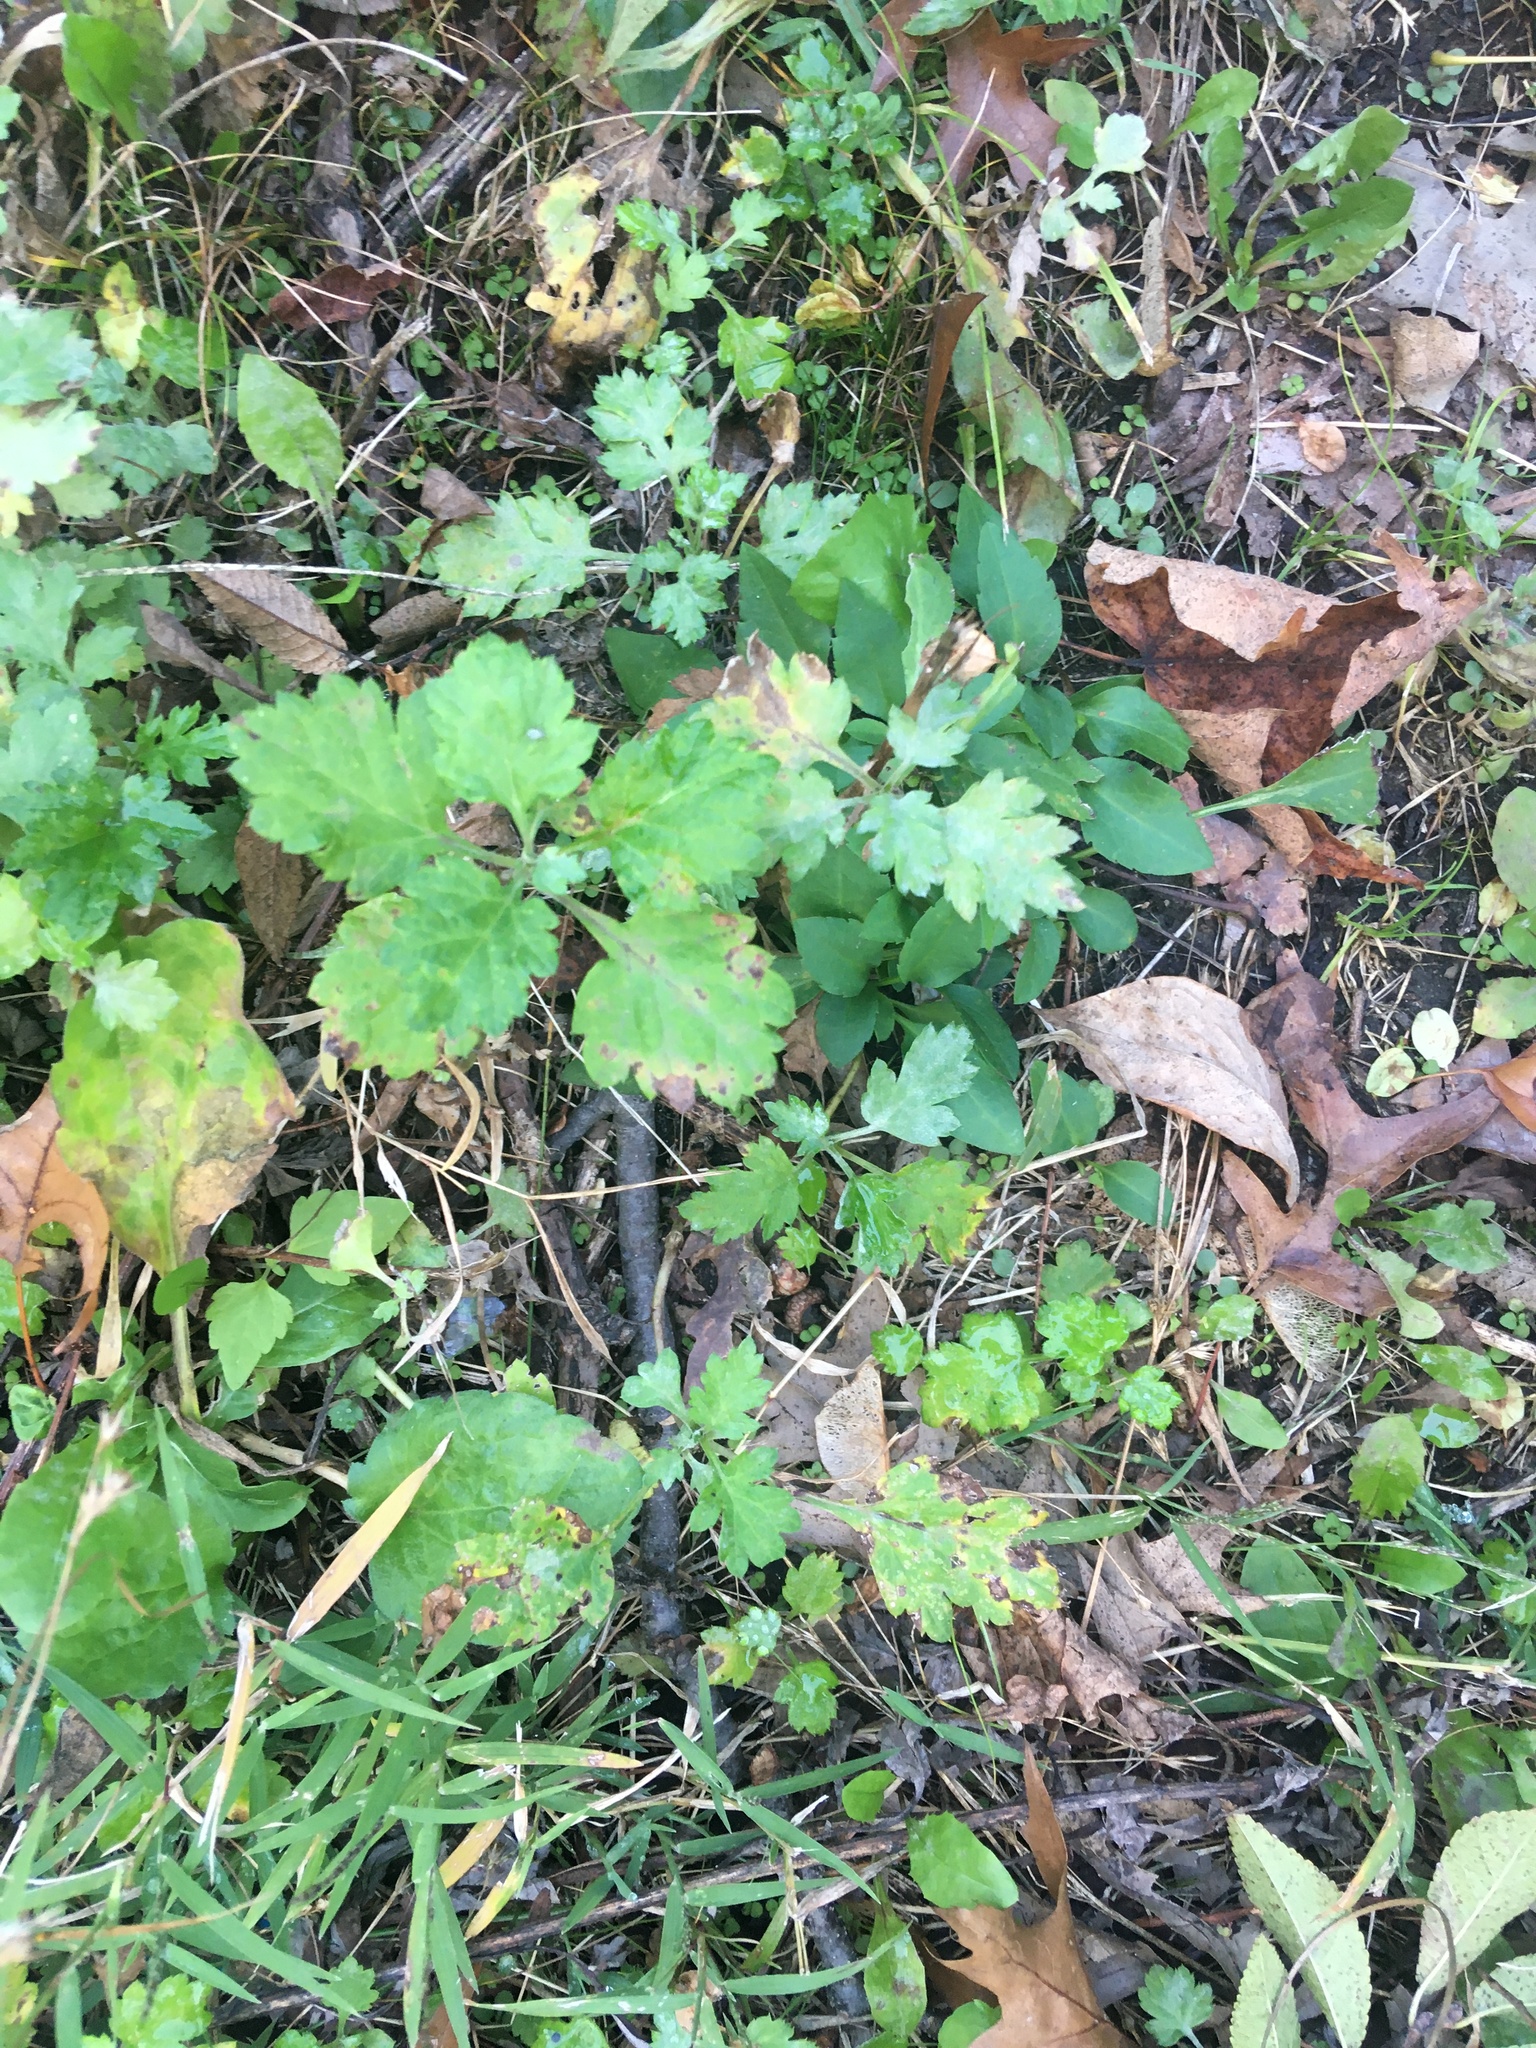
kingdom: Plantae
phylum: Tracheophyta
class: Magnoliopsida
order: Asterales
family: Asteraceae
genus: Artemisia
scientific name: Artemisia vulgaris
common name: Mugwort
